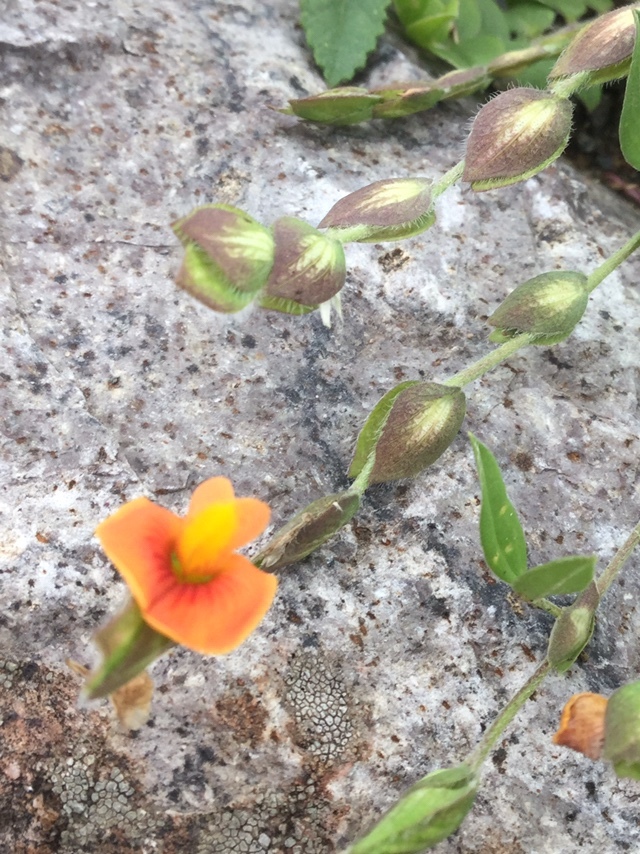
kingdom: Plantae
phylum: Tracheophyta
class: Magnoliopsida
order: Fabales
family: Fabaceae
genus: Zornia
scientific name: Zornia thymifolia
